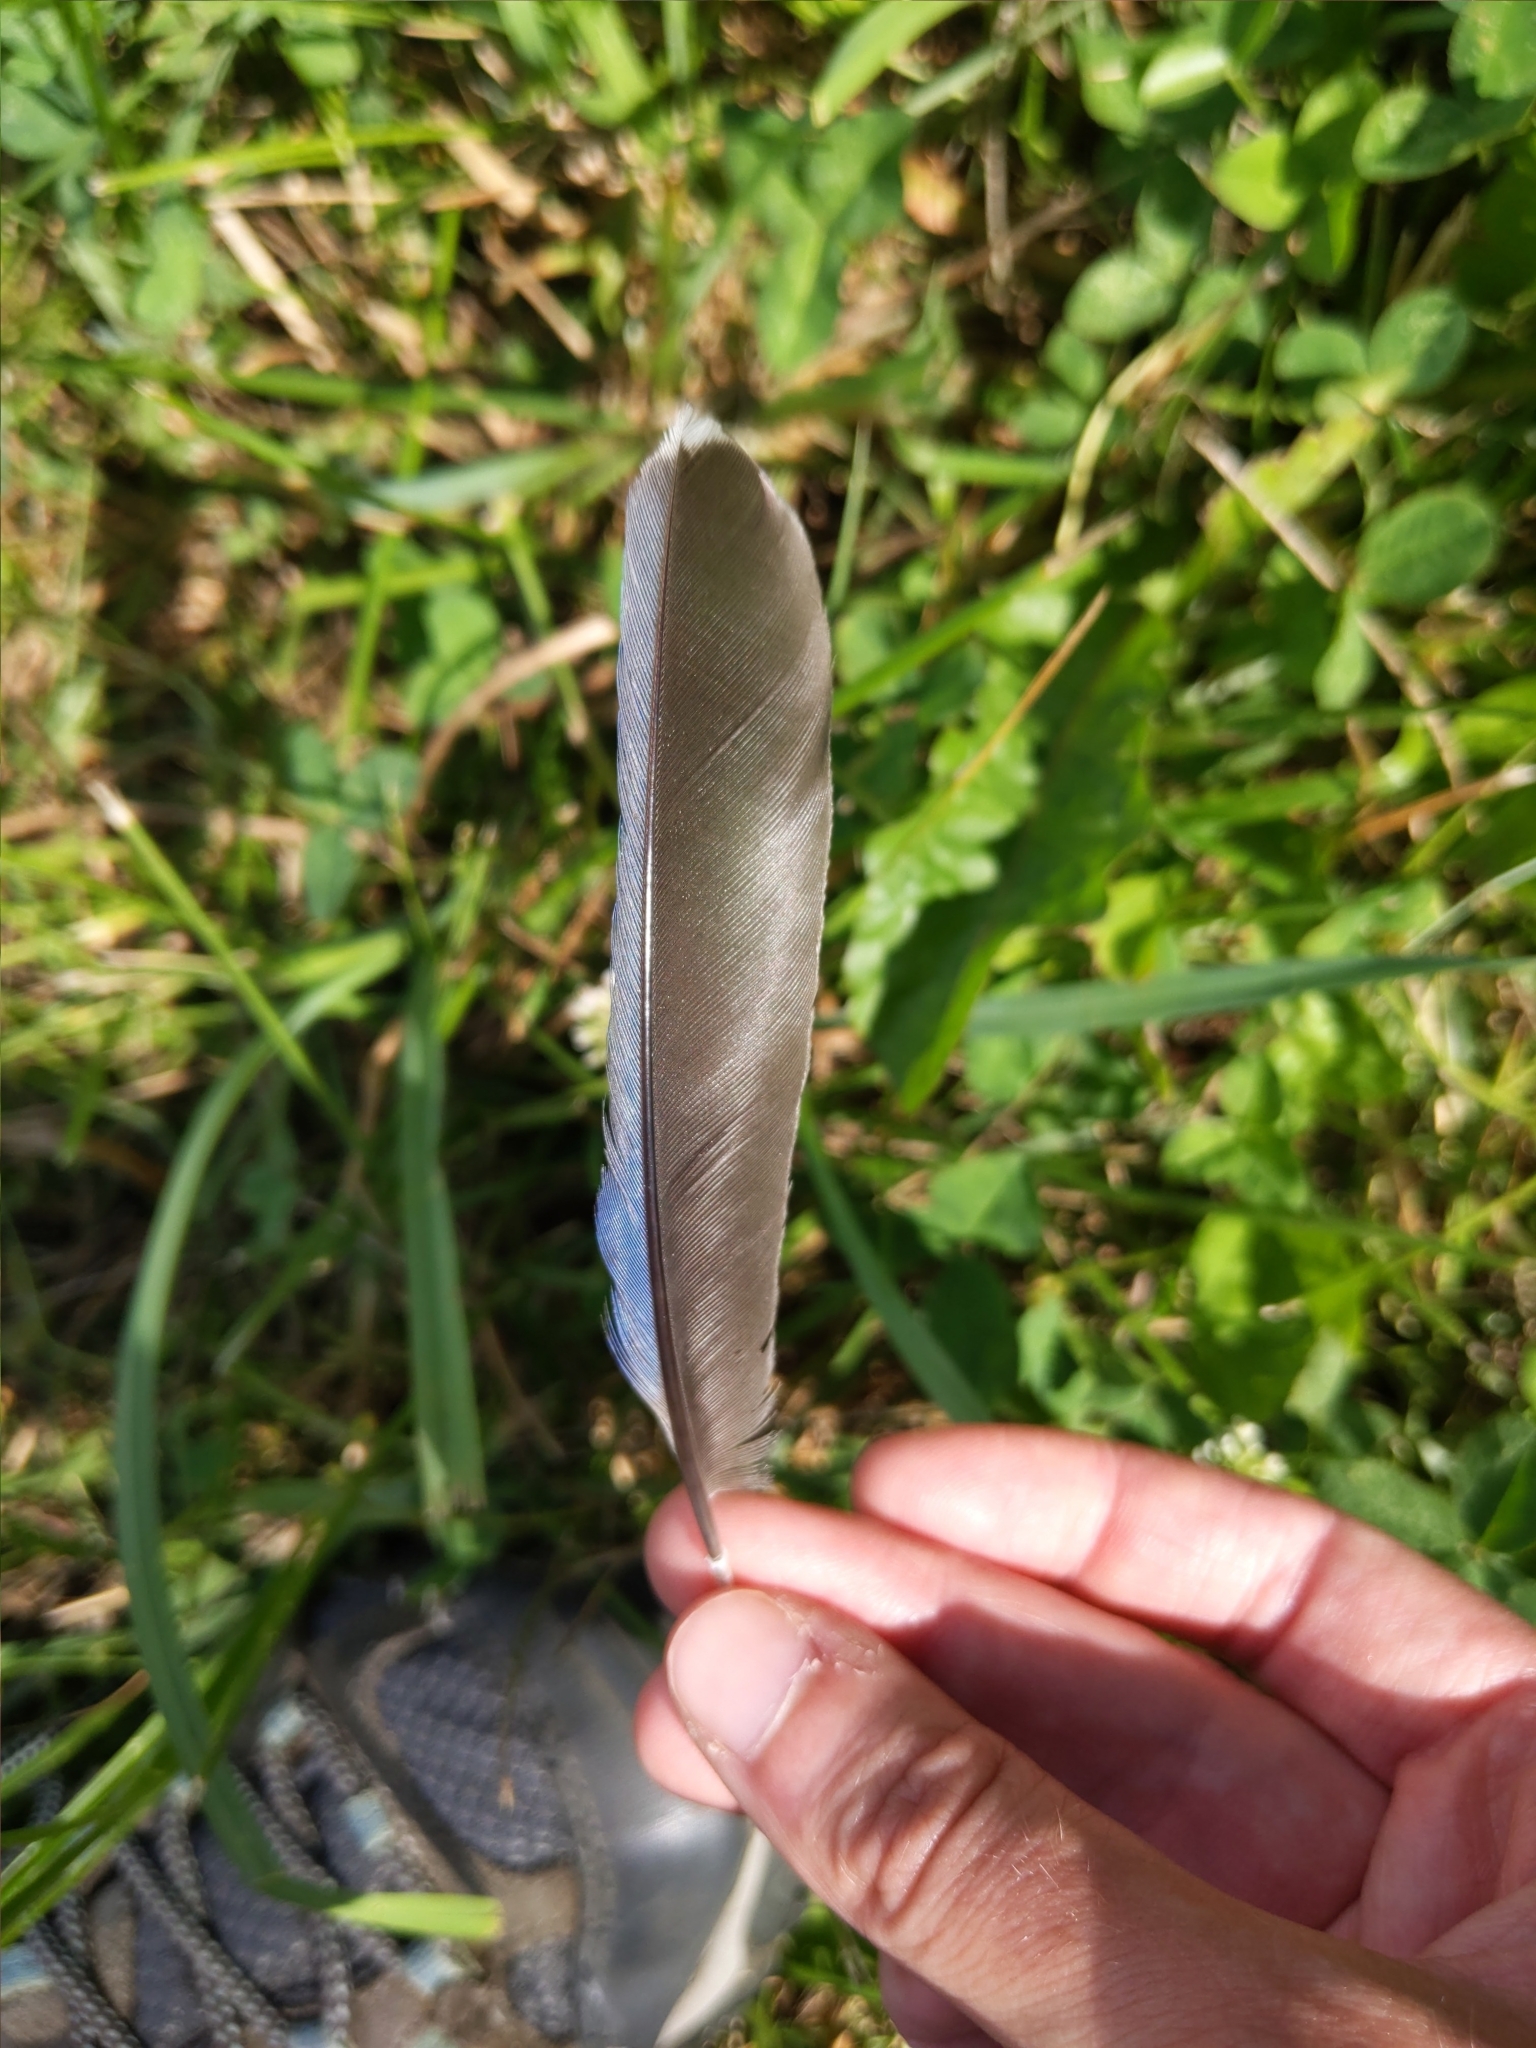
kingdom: Animalia
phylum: Chordata
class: Aves
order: Passeriformes
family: Corvidae
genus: Cyanocitta
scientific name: Cyanocitta cristata
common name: Blue jay
